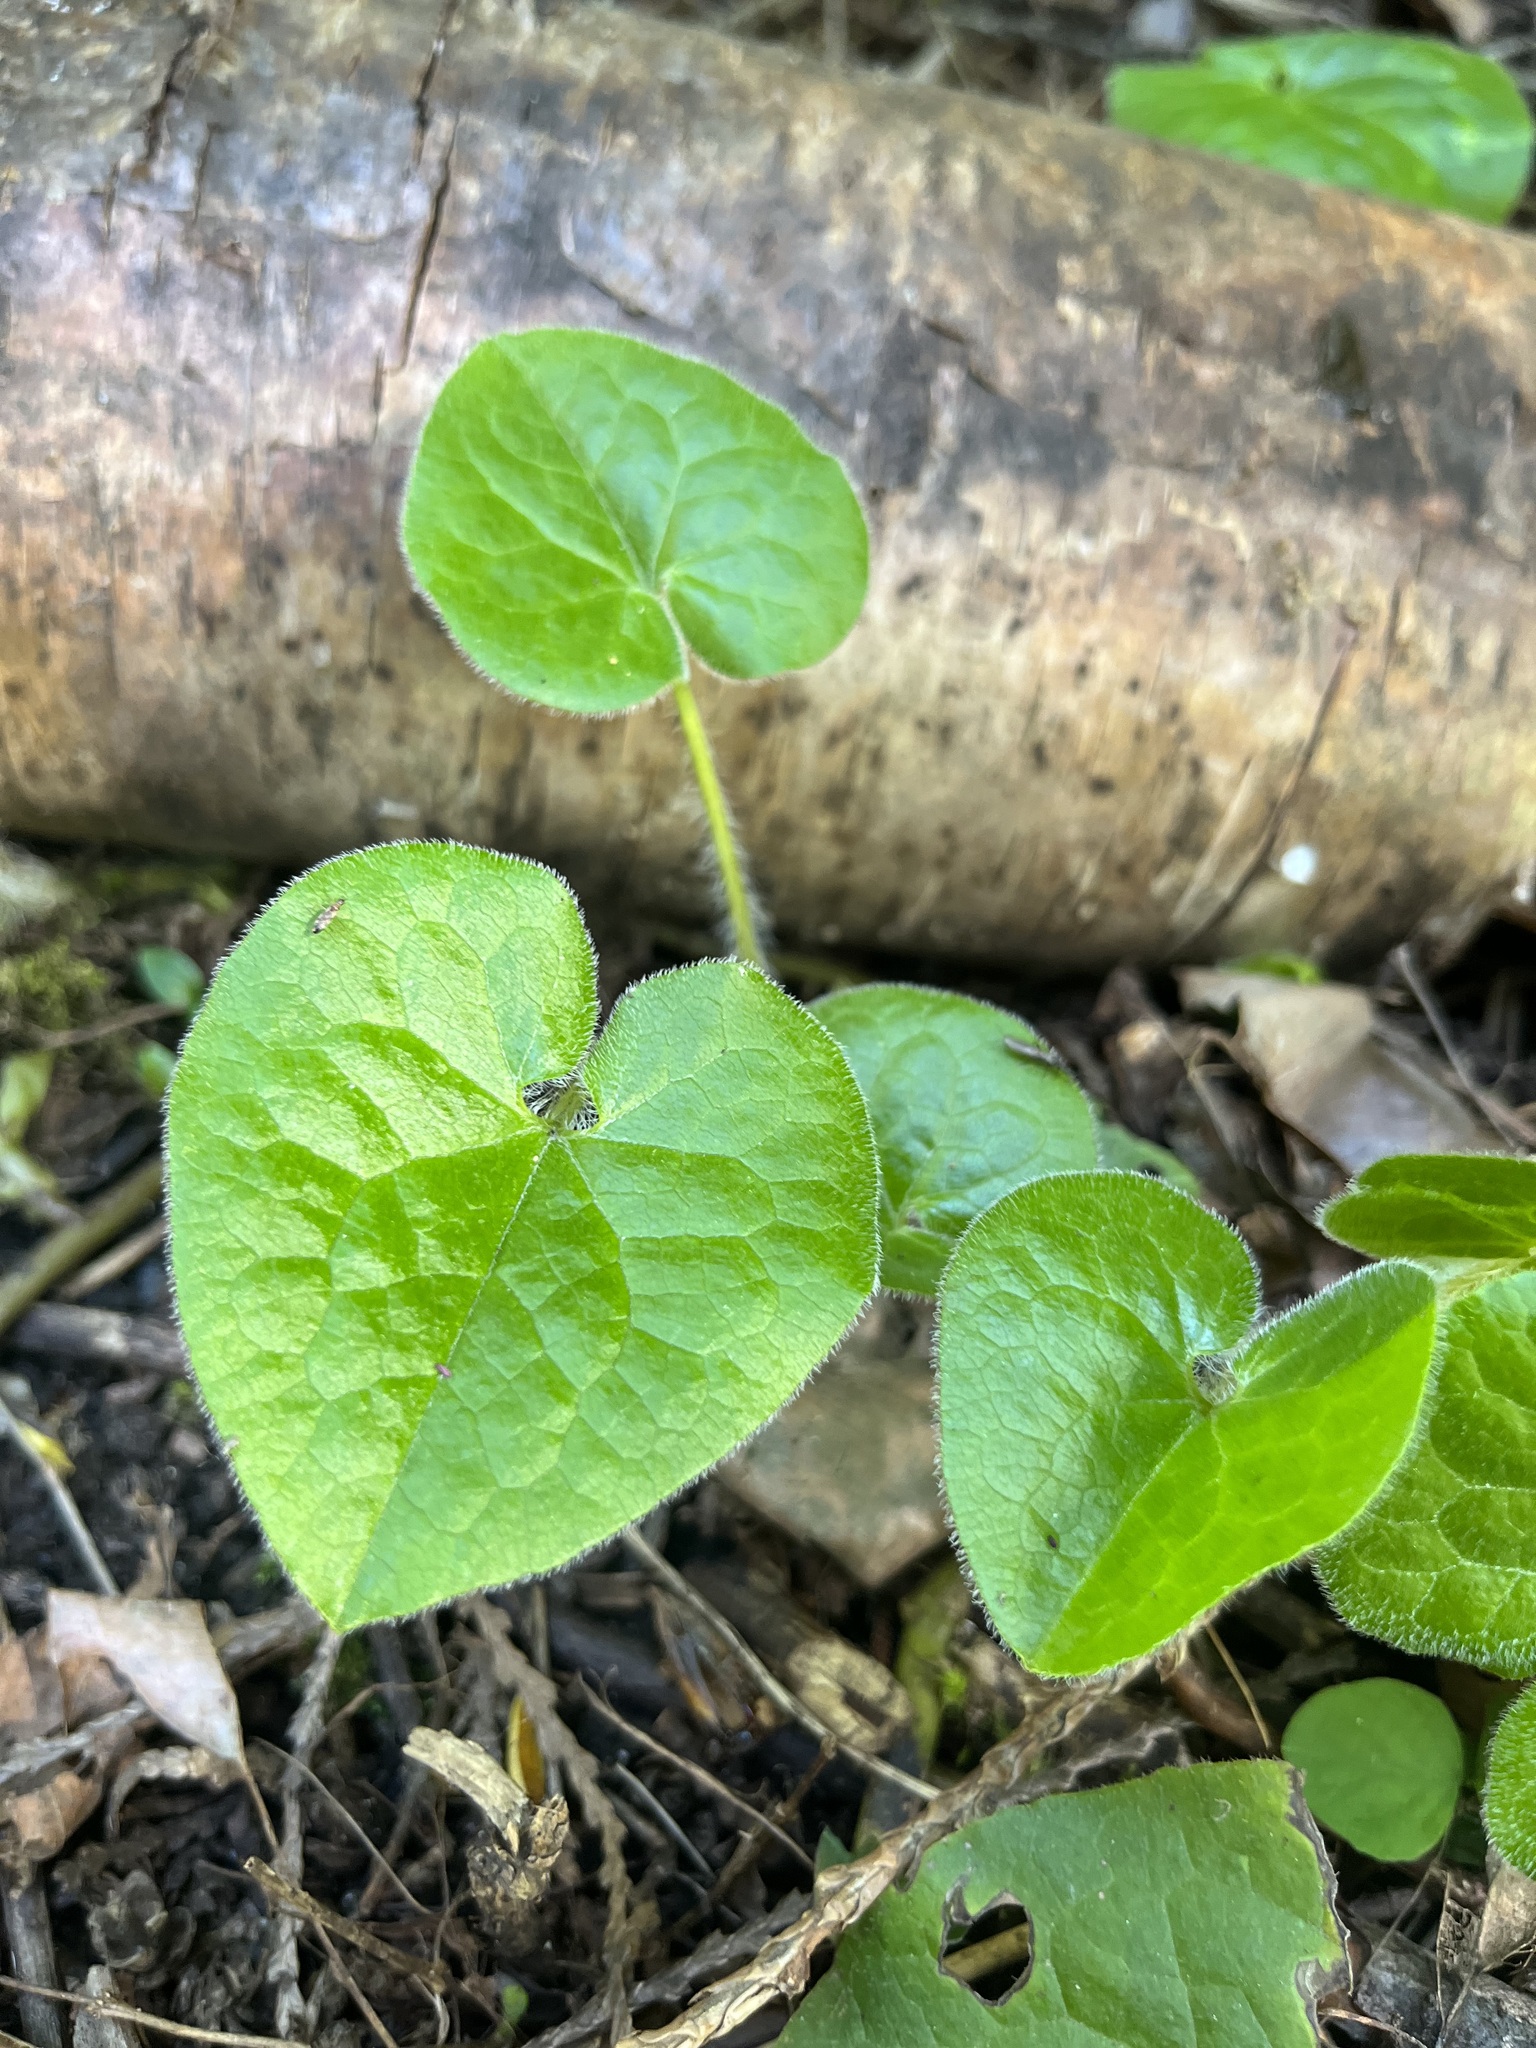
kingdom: Plantae
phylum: Tracheophyta
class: Magnoliopsida
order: Piperales
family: Aristolochiaceae
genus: Asarum
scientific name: Asarum caudatum
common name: Wild ginger
